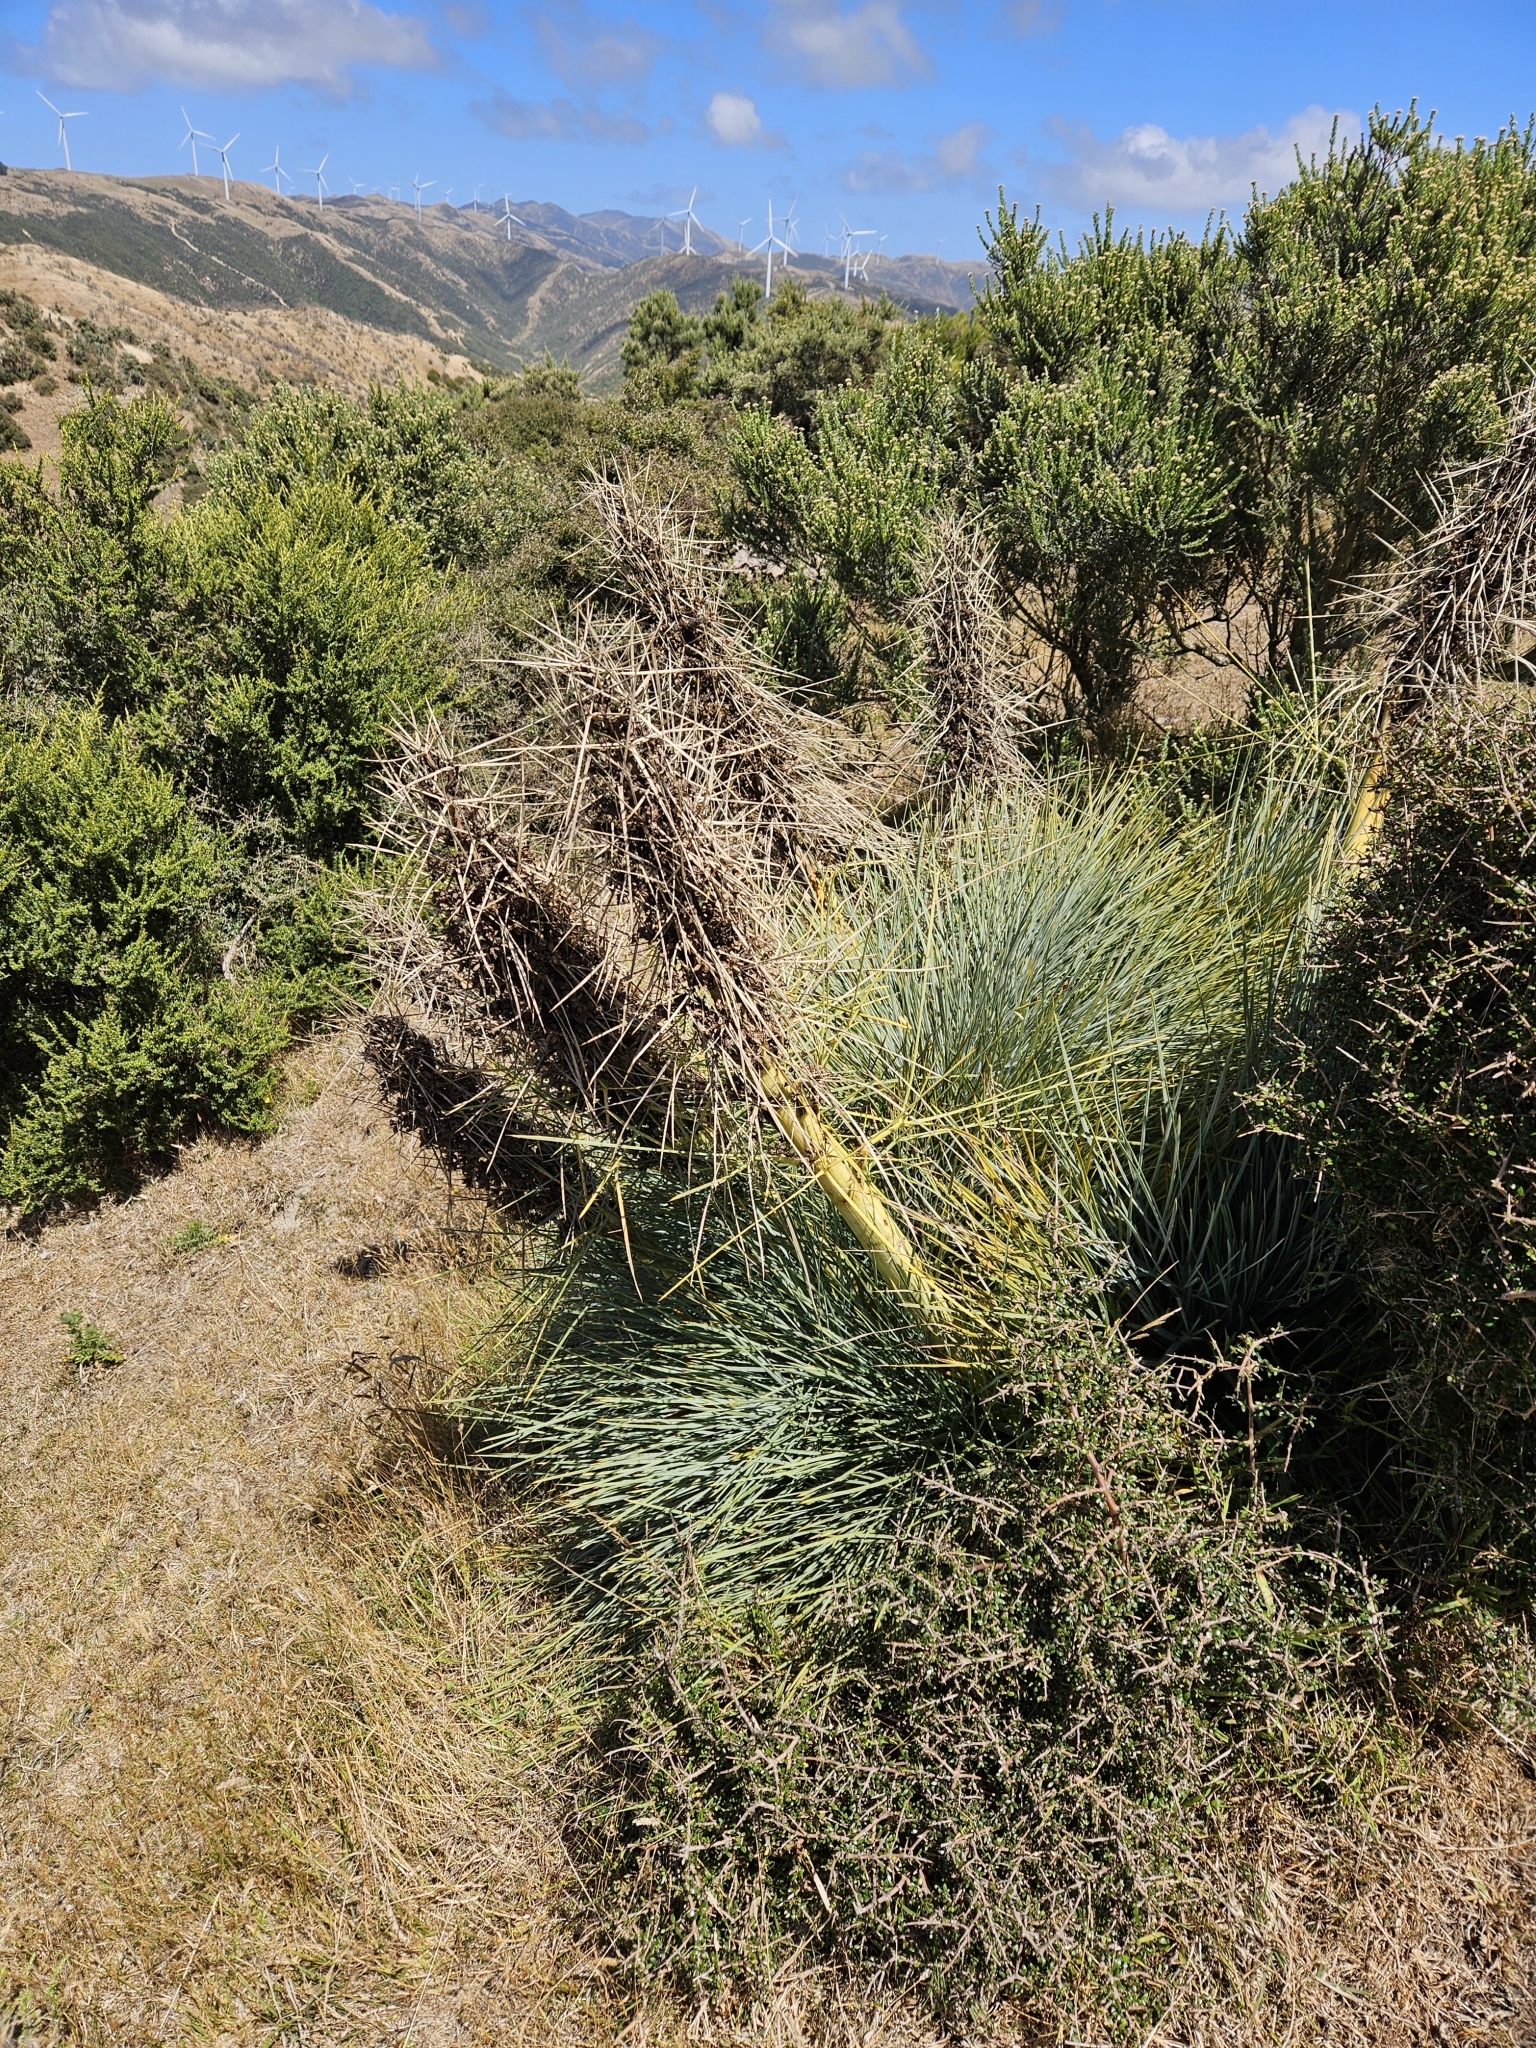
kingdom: Plantae
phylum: Tracheophyta
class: Magnoliopsida
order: Apiales
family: Apiaceae
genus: Aciphylla
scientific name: Aciphylla squarrosa
